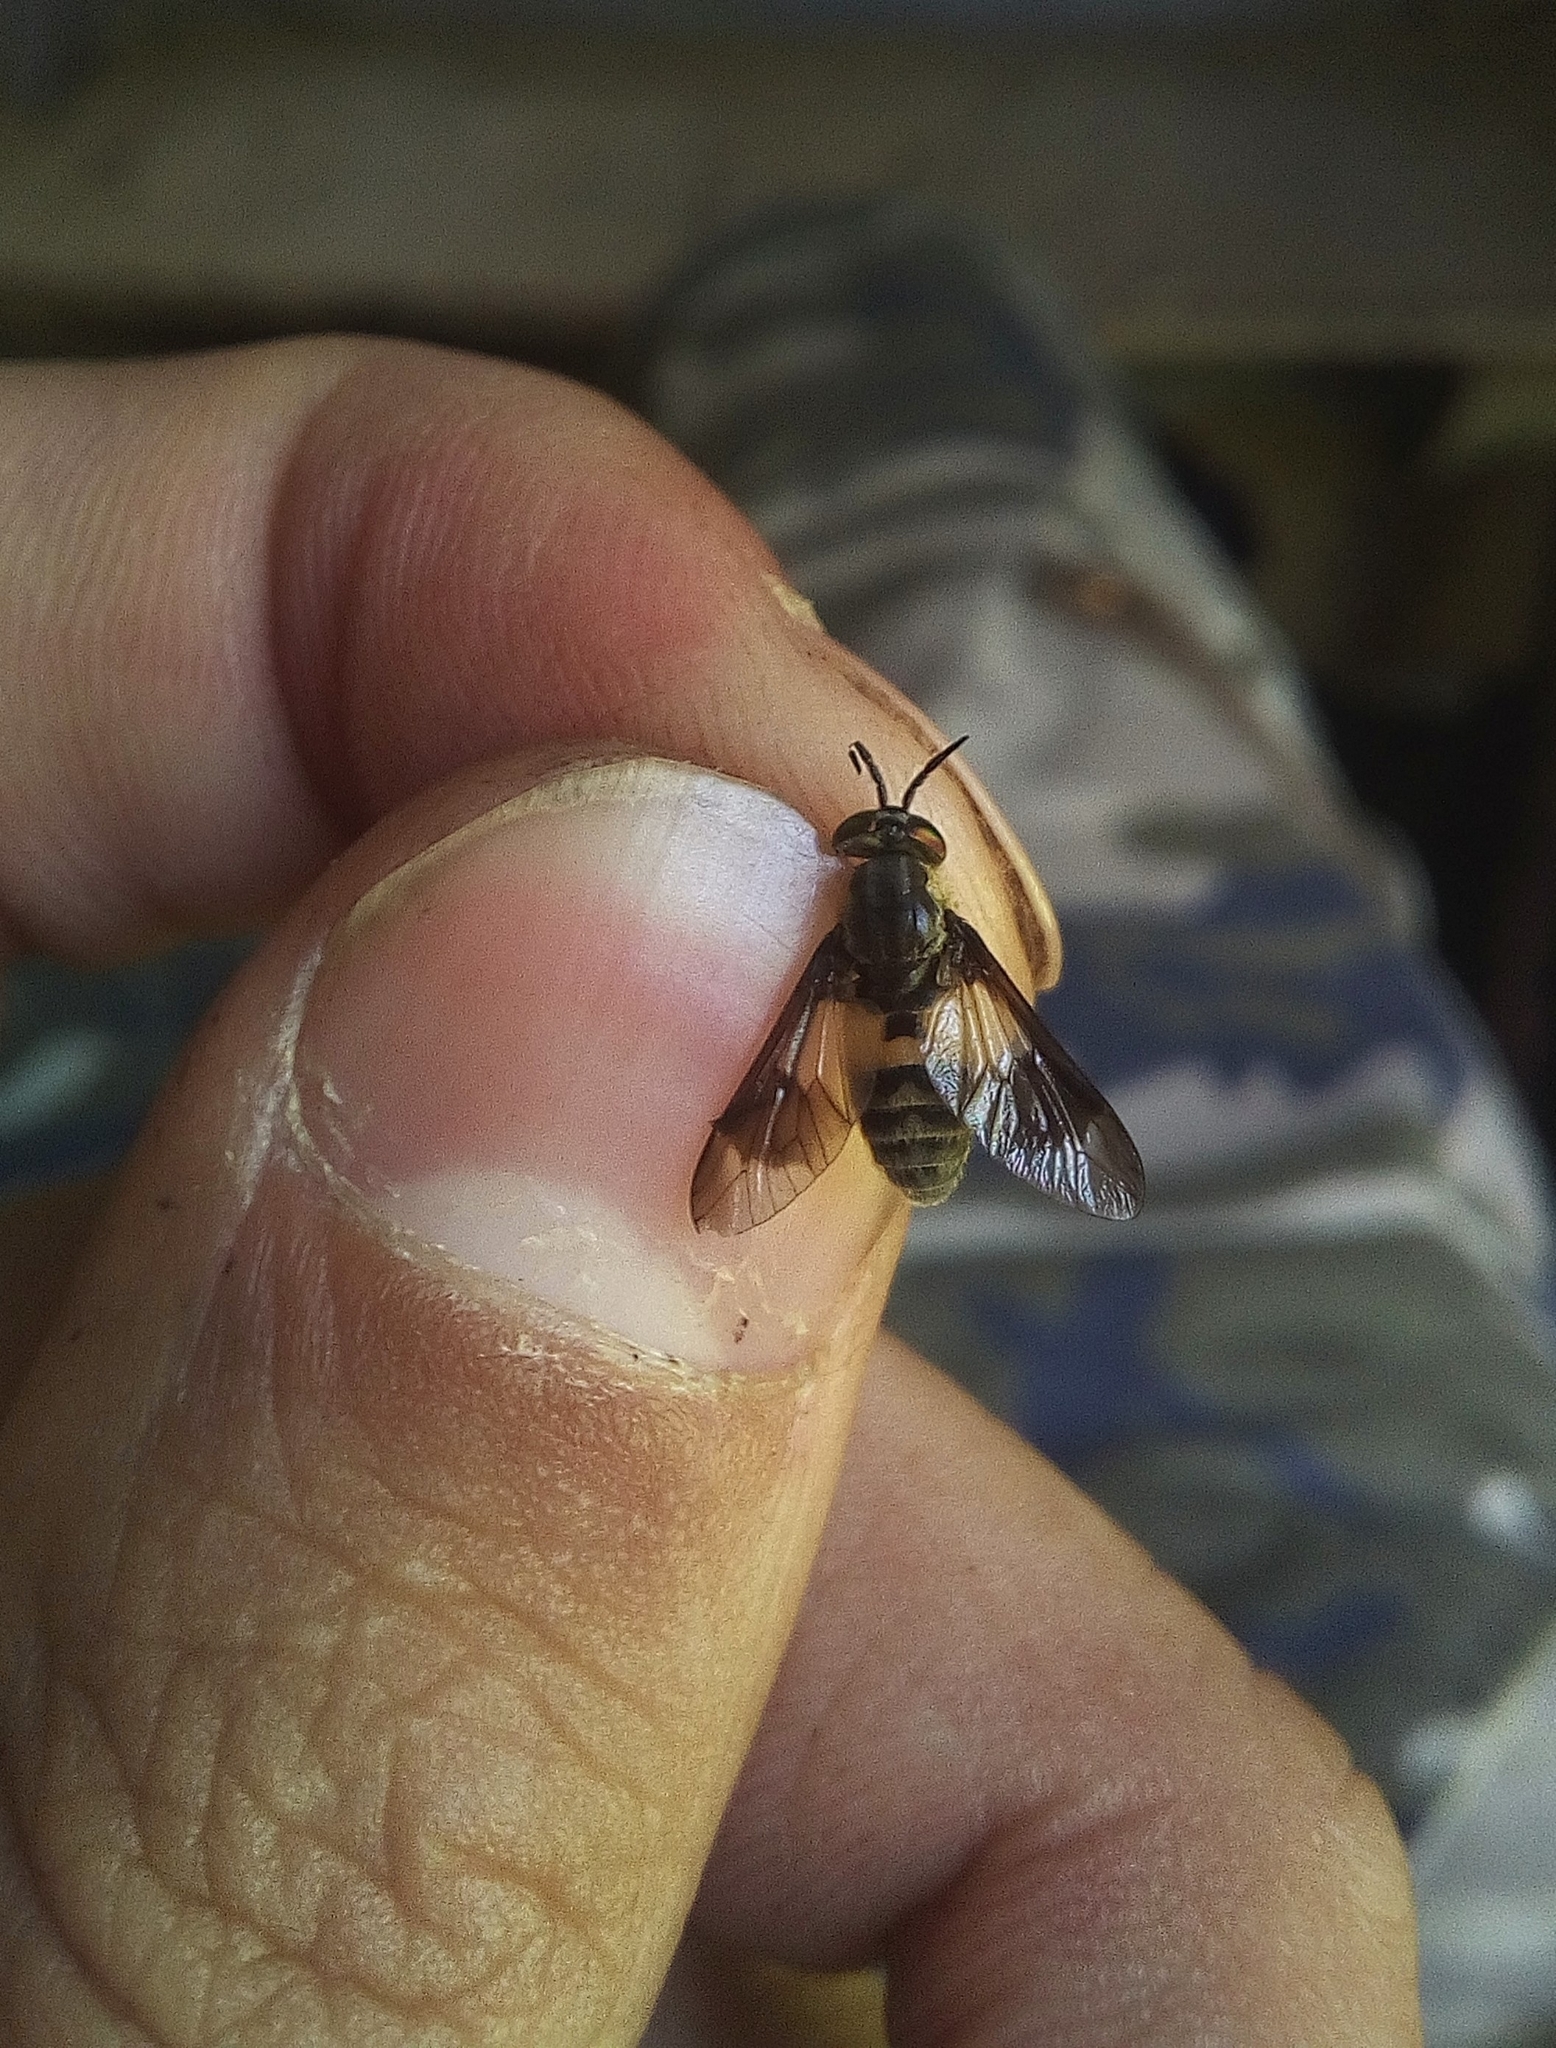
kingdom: Animalia
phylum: Arthropoda
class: Insecta
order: Diptera
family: Tabanidae
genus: Chrysops
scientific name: Chrysops viduatus
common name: Square-spot deerfly
